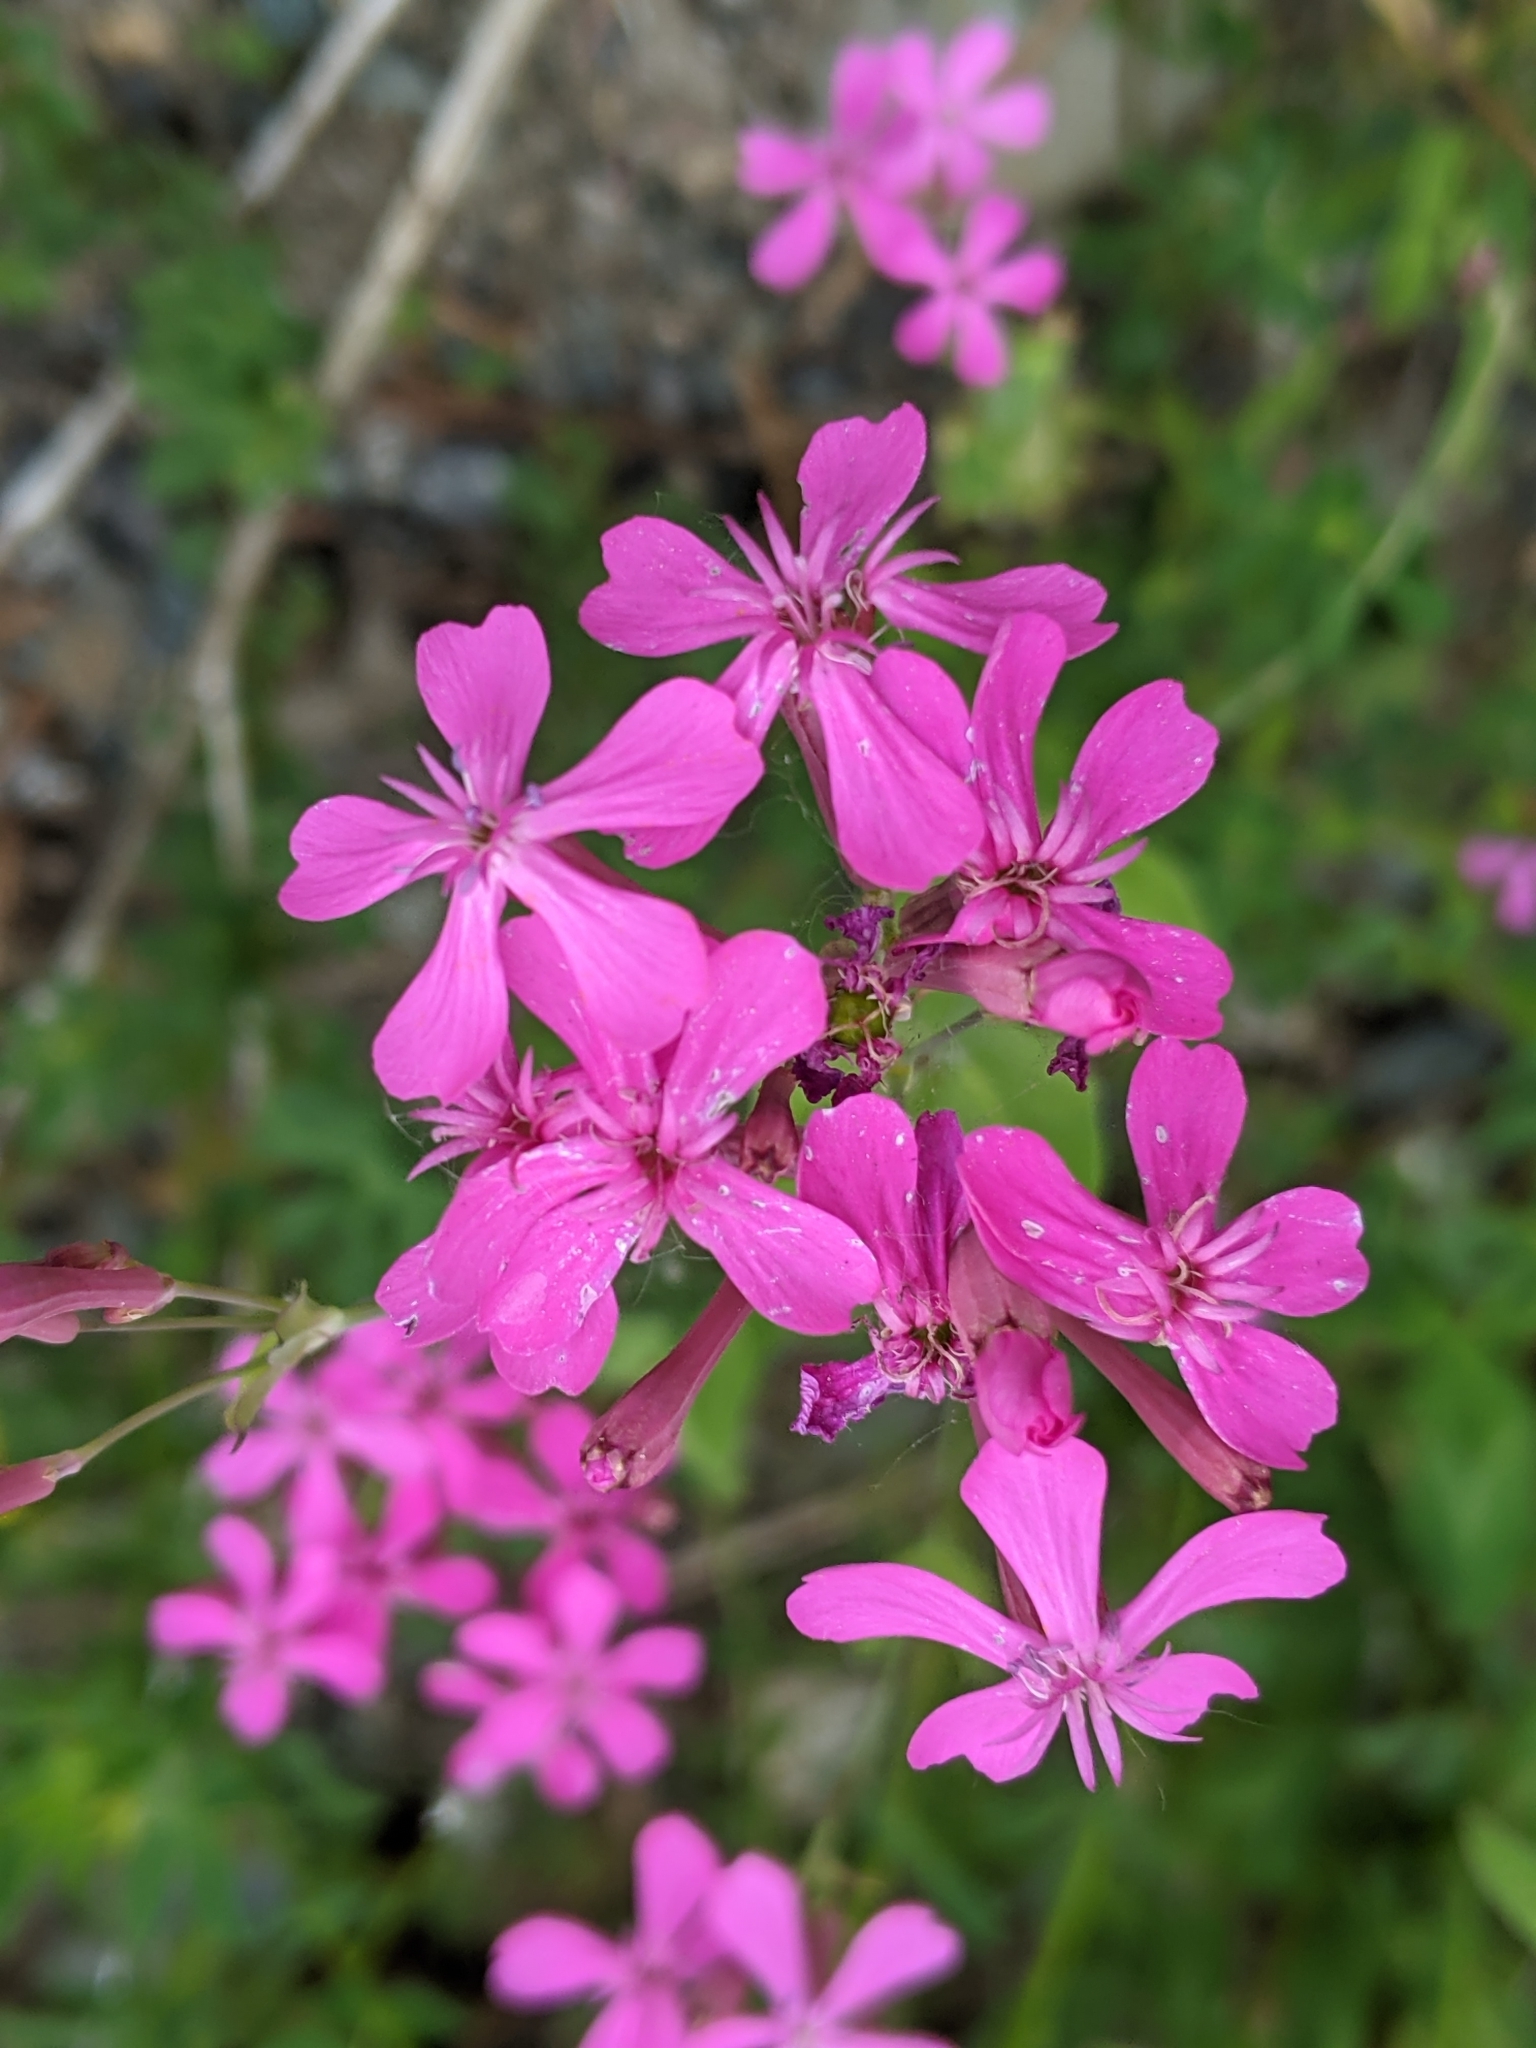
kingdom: Plantae
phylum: Tracheophyta
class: Magnoliopsida
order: Caryophyllales
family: Caryophyllaceae
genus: Atocion
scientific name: Atocion armeria
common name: Sweet william catchfly
